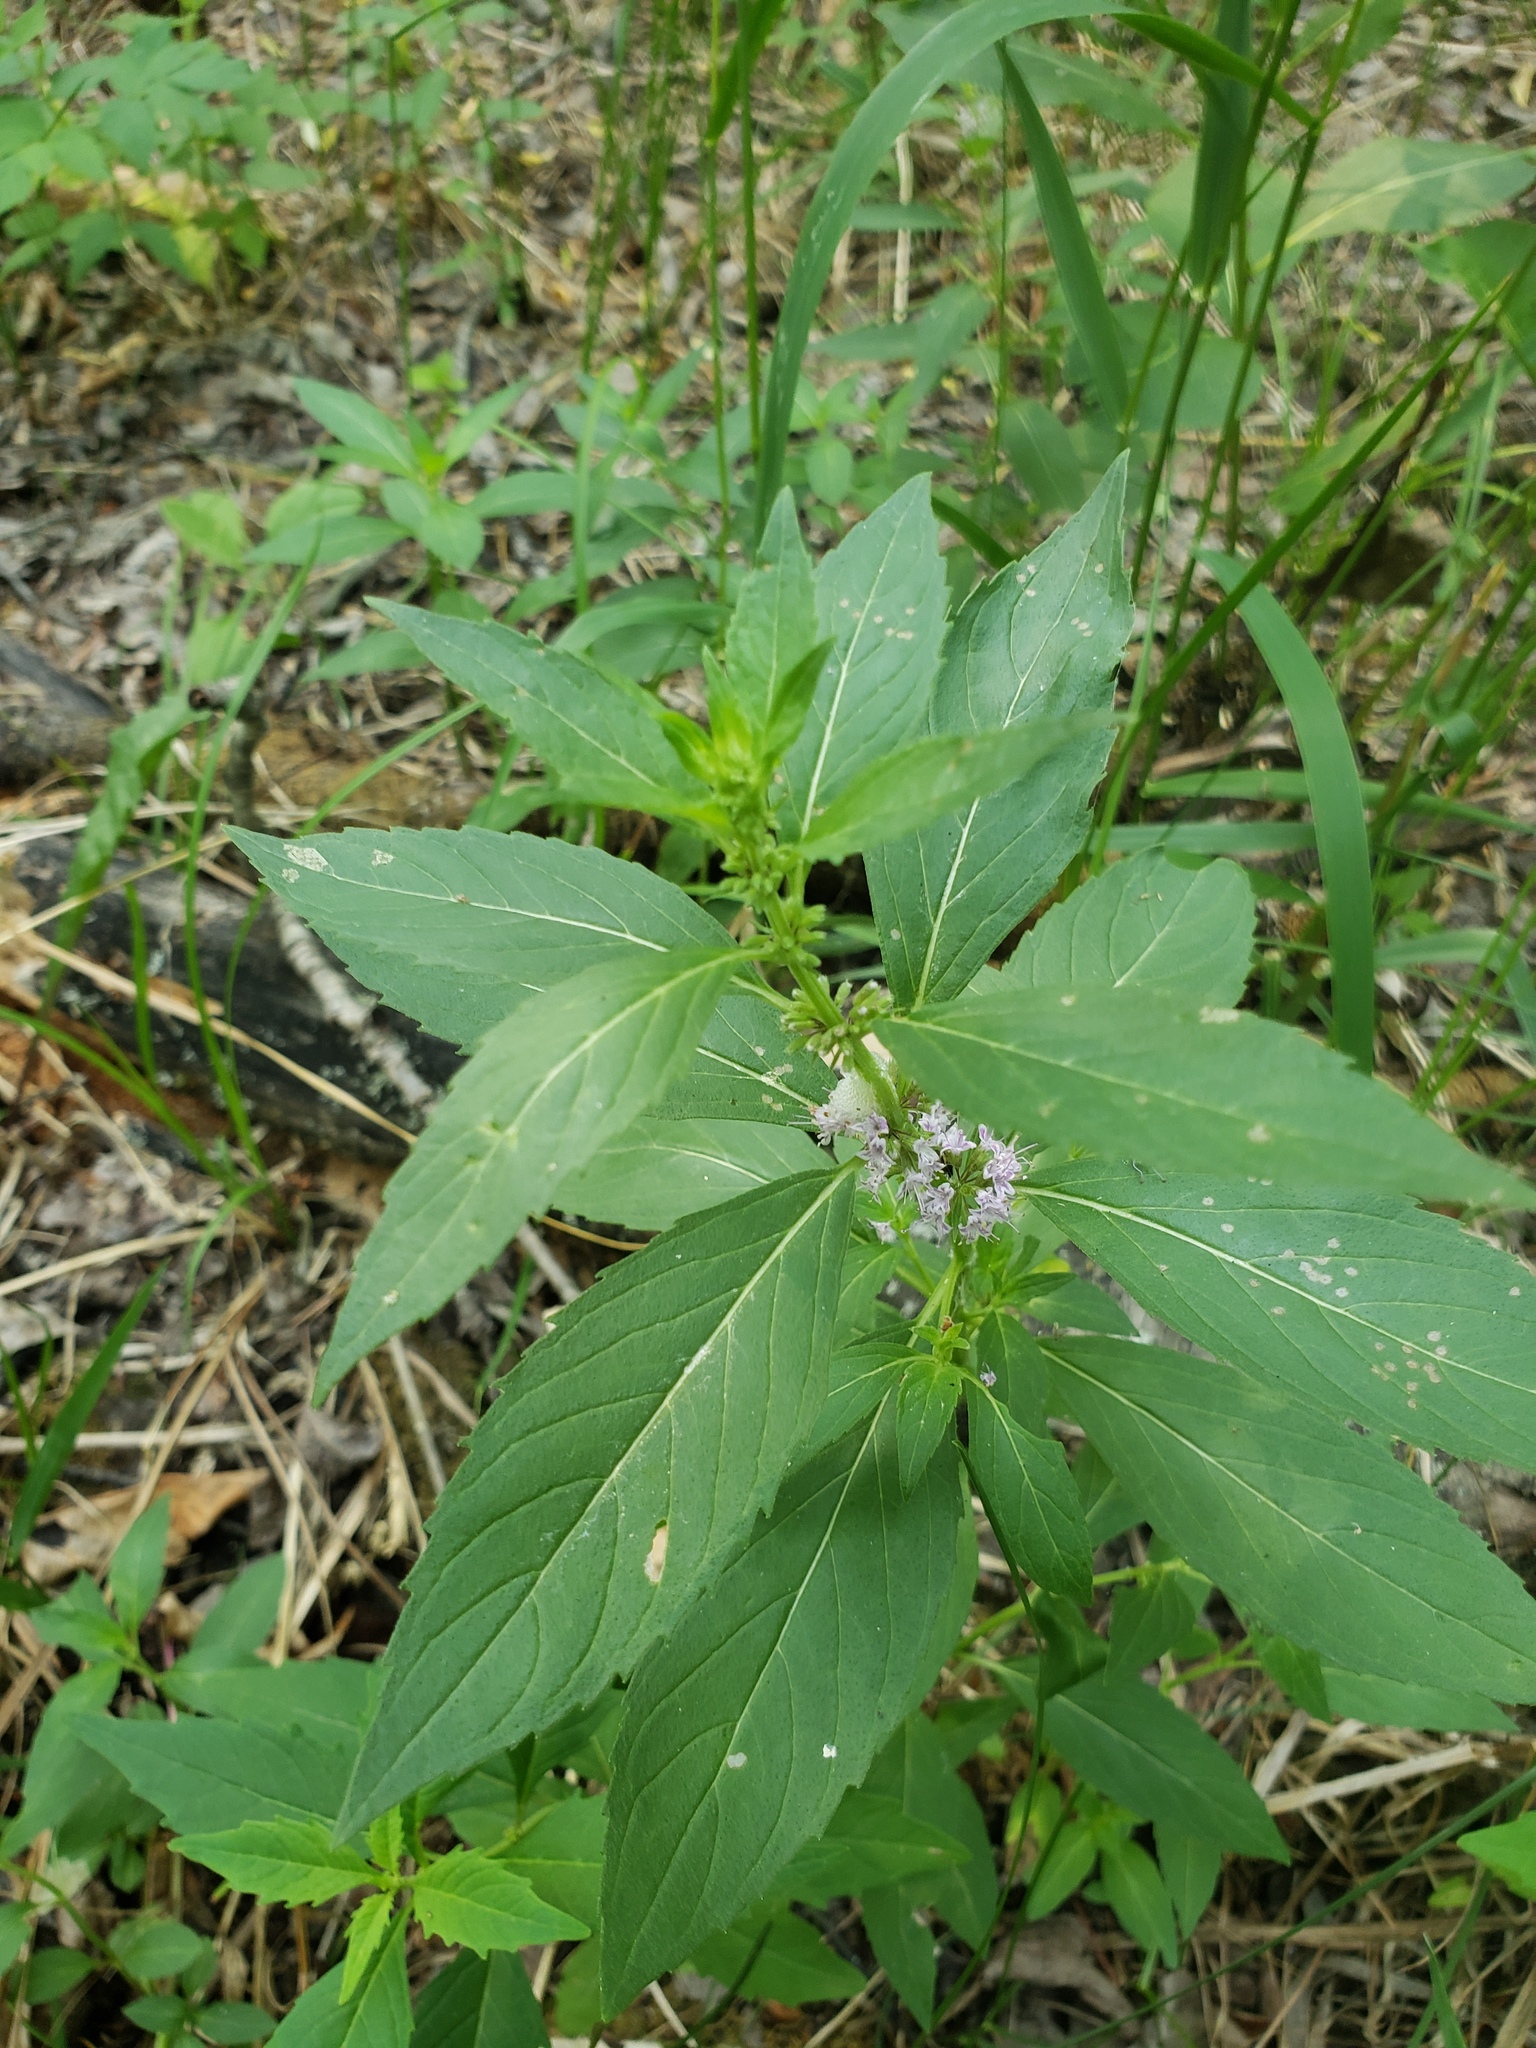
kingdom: Plantae
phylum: Tracheophyta
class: Magnoliopsida
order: Lamiales
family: Lamiaceae
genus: Mentha
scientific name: Mentha canadensis
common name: American corn mint
